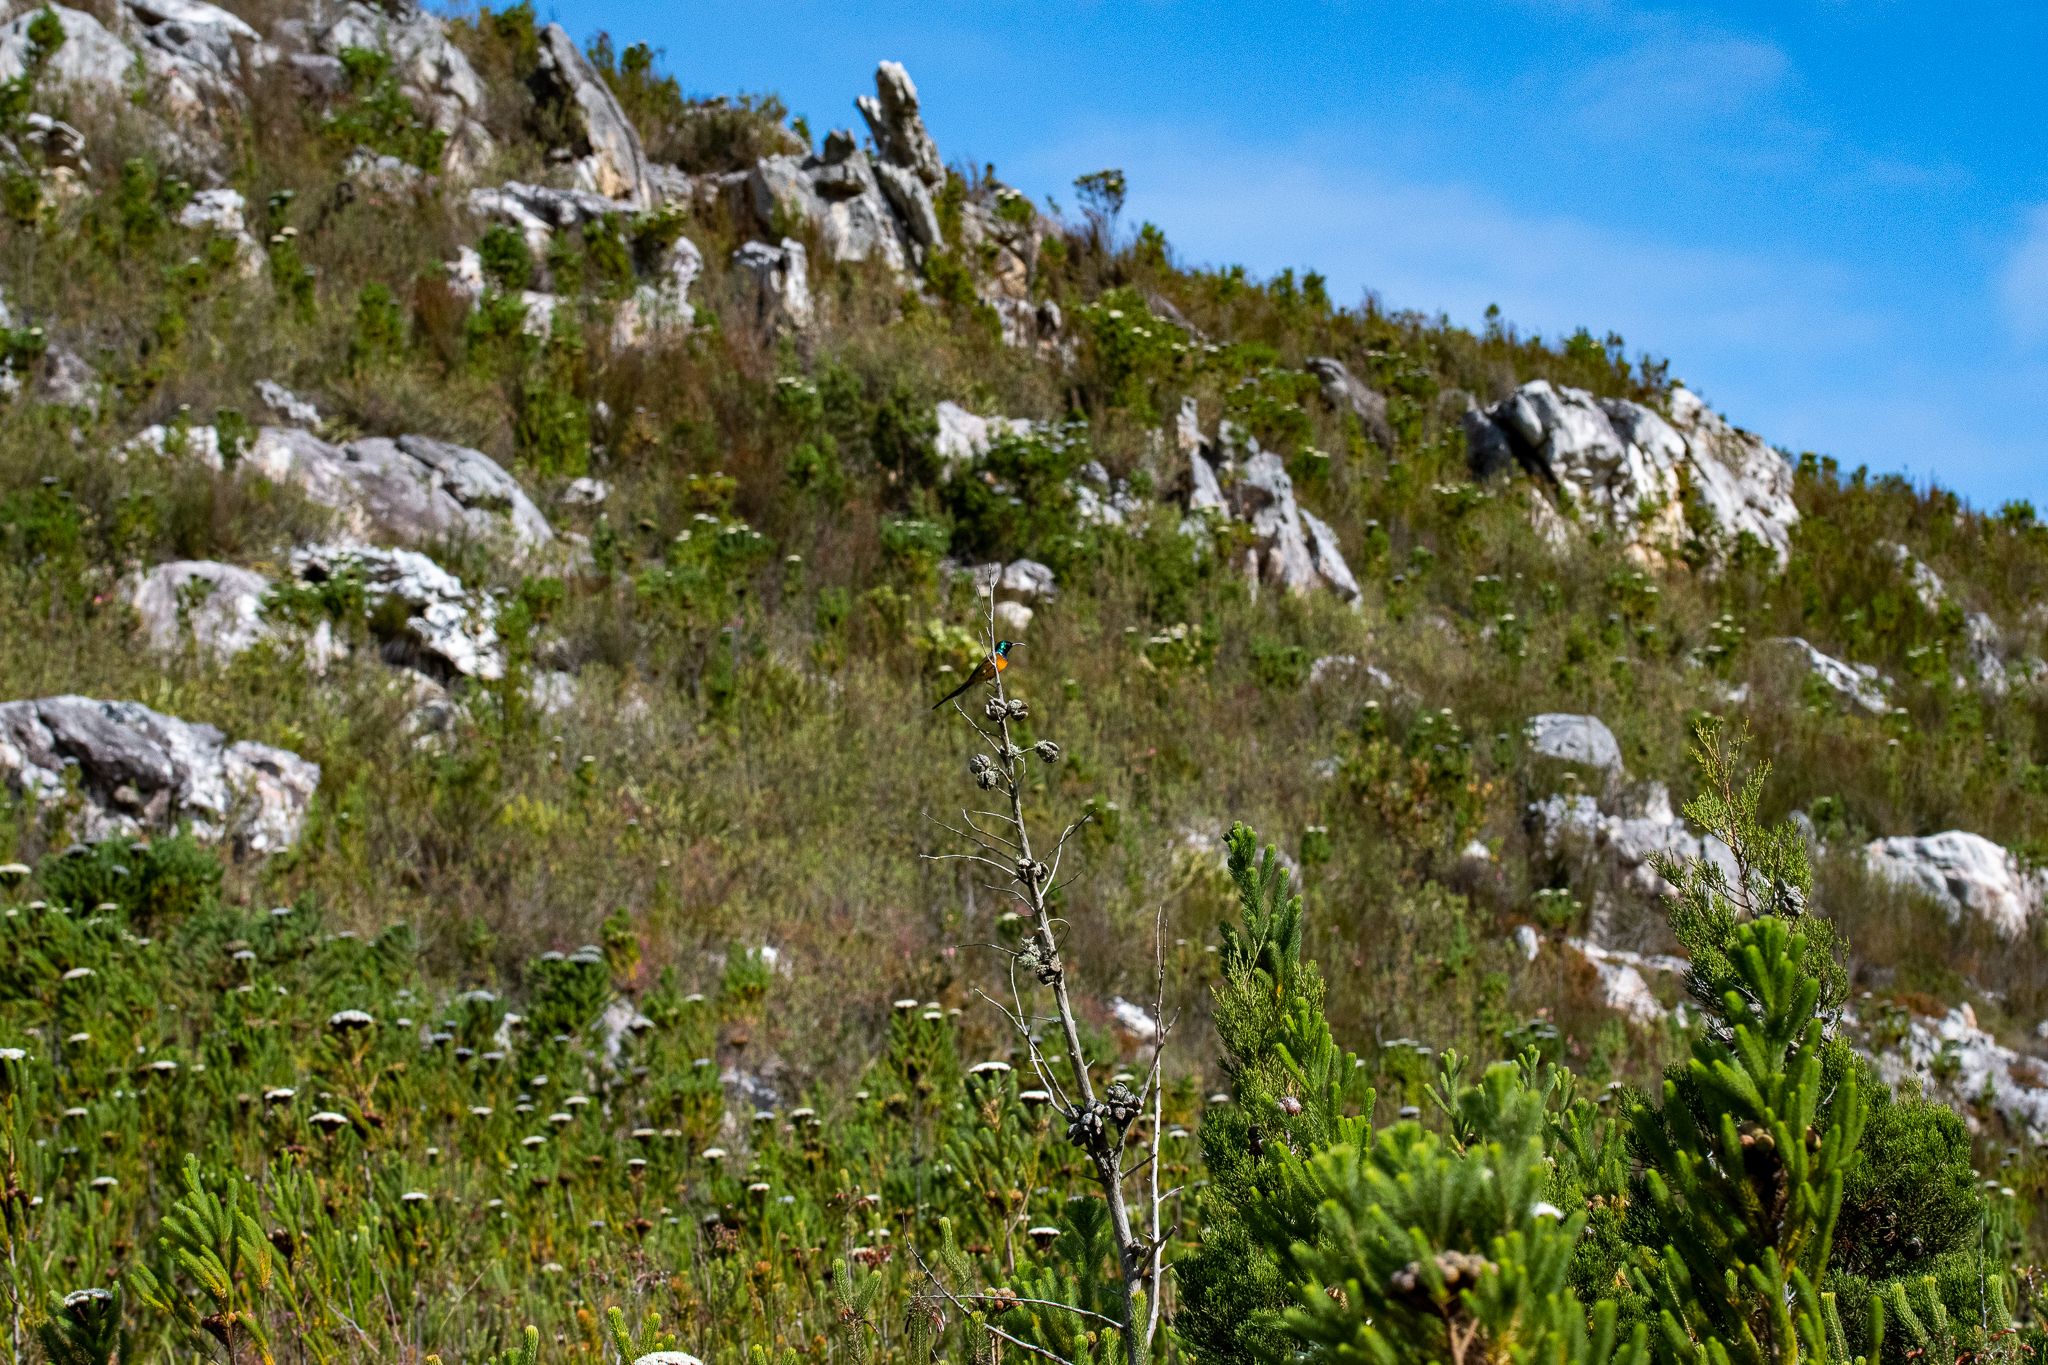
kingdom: Animalia
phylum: Chordata
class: Aves
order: Passeriformes
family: Nectariniidae
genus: Anthobaphes
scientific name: Anthobaphes violacea
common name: Orange-breasted sunbird
